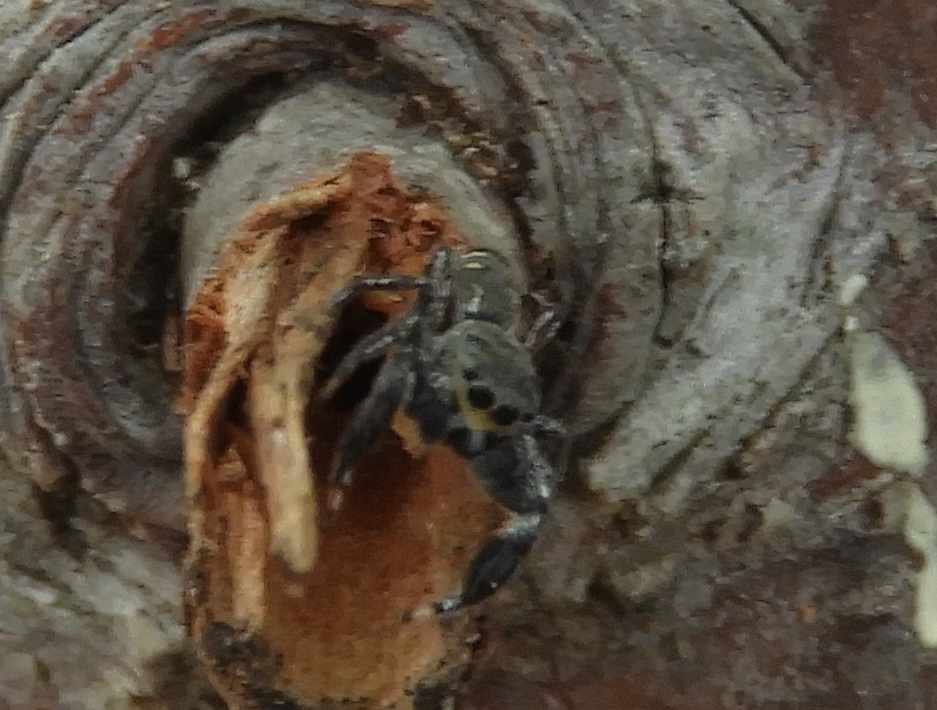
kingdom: Animalia
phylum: Arthropoda
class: Arachnida
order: Araneae
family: Salticidae
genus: Metacyrba
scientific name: Metacyrba
